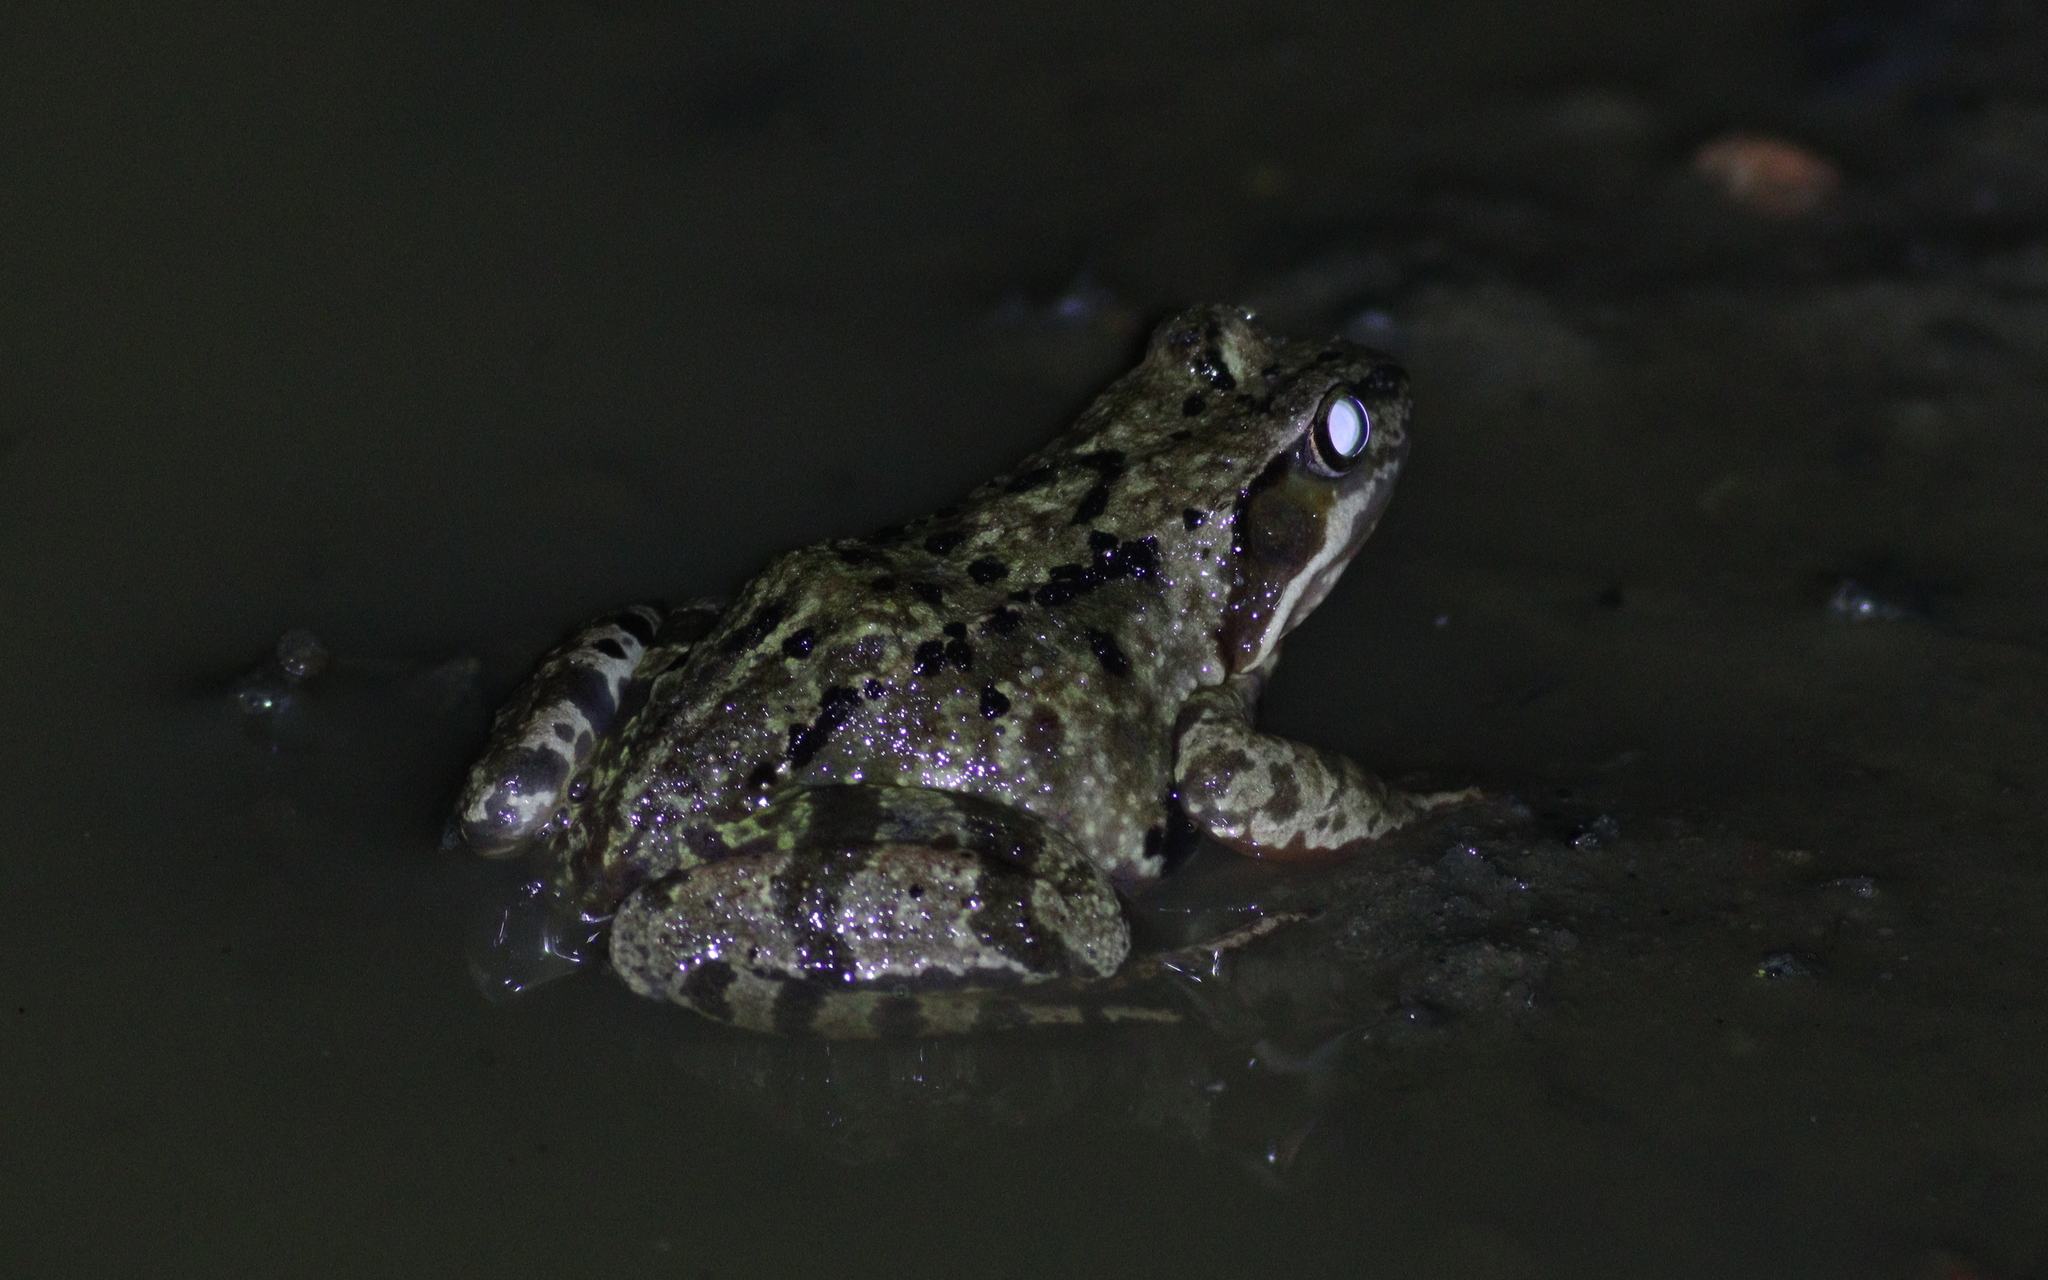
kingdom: Animalia
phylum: Chordata
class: Amphibia
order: Anura
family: Ranidae
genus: Rana
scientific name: Rana temporaria
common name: Common frog
